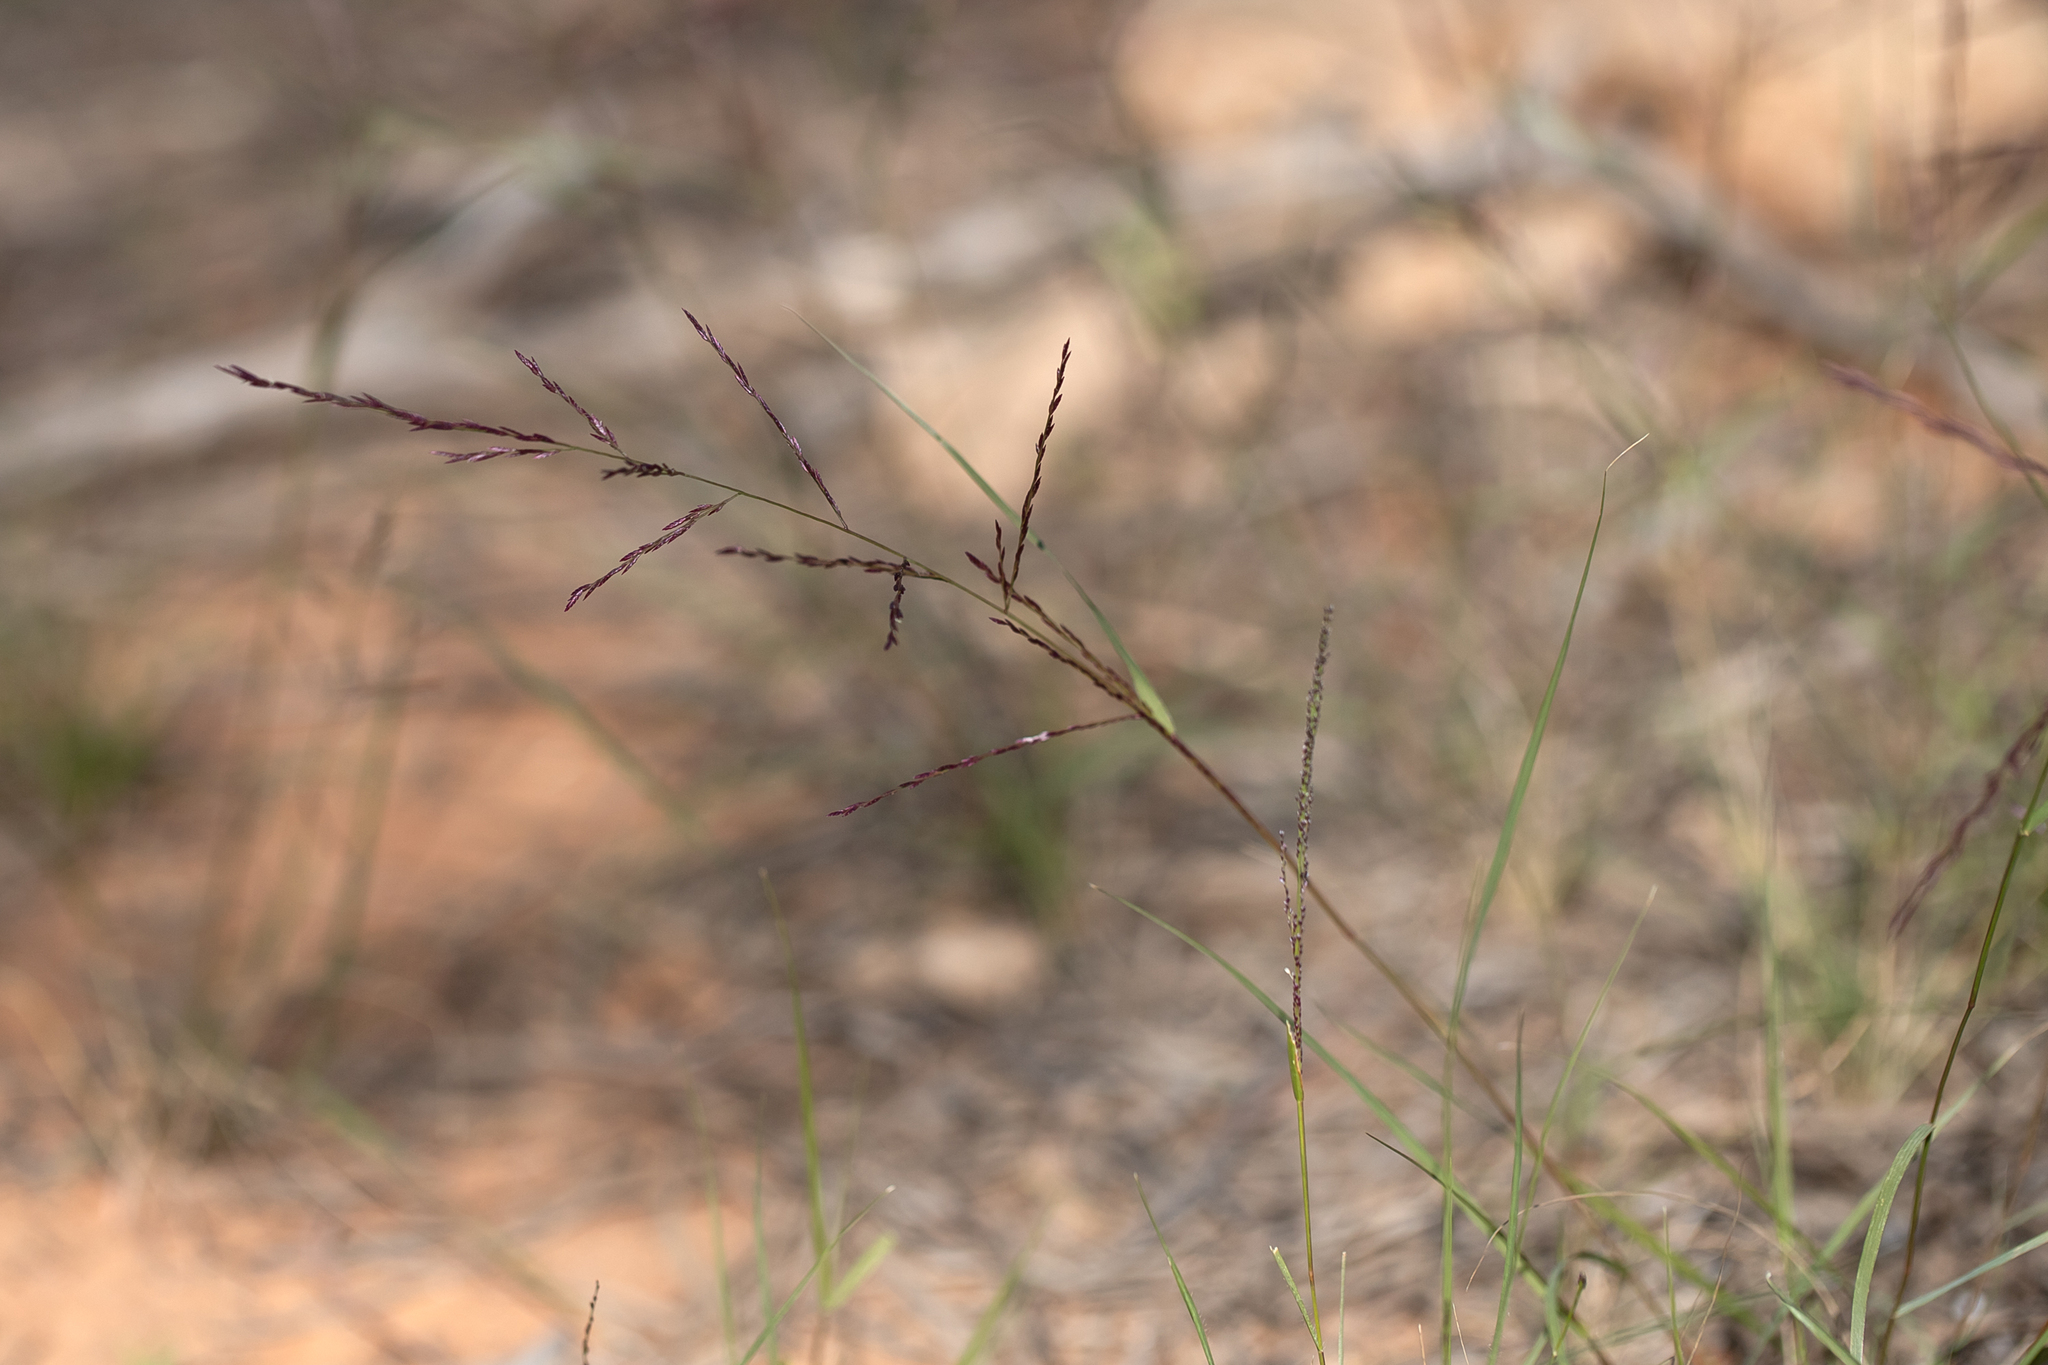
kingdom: Plantae
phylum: Tracheophyta
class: Liliopsida
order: Poales
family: Poaceae
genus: Eragrostis
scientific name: Eragrostis microcarpa
